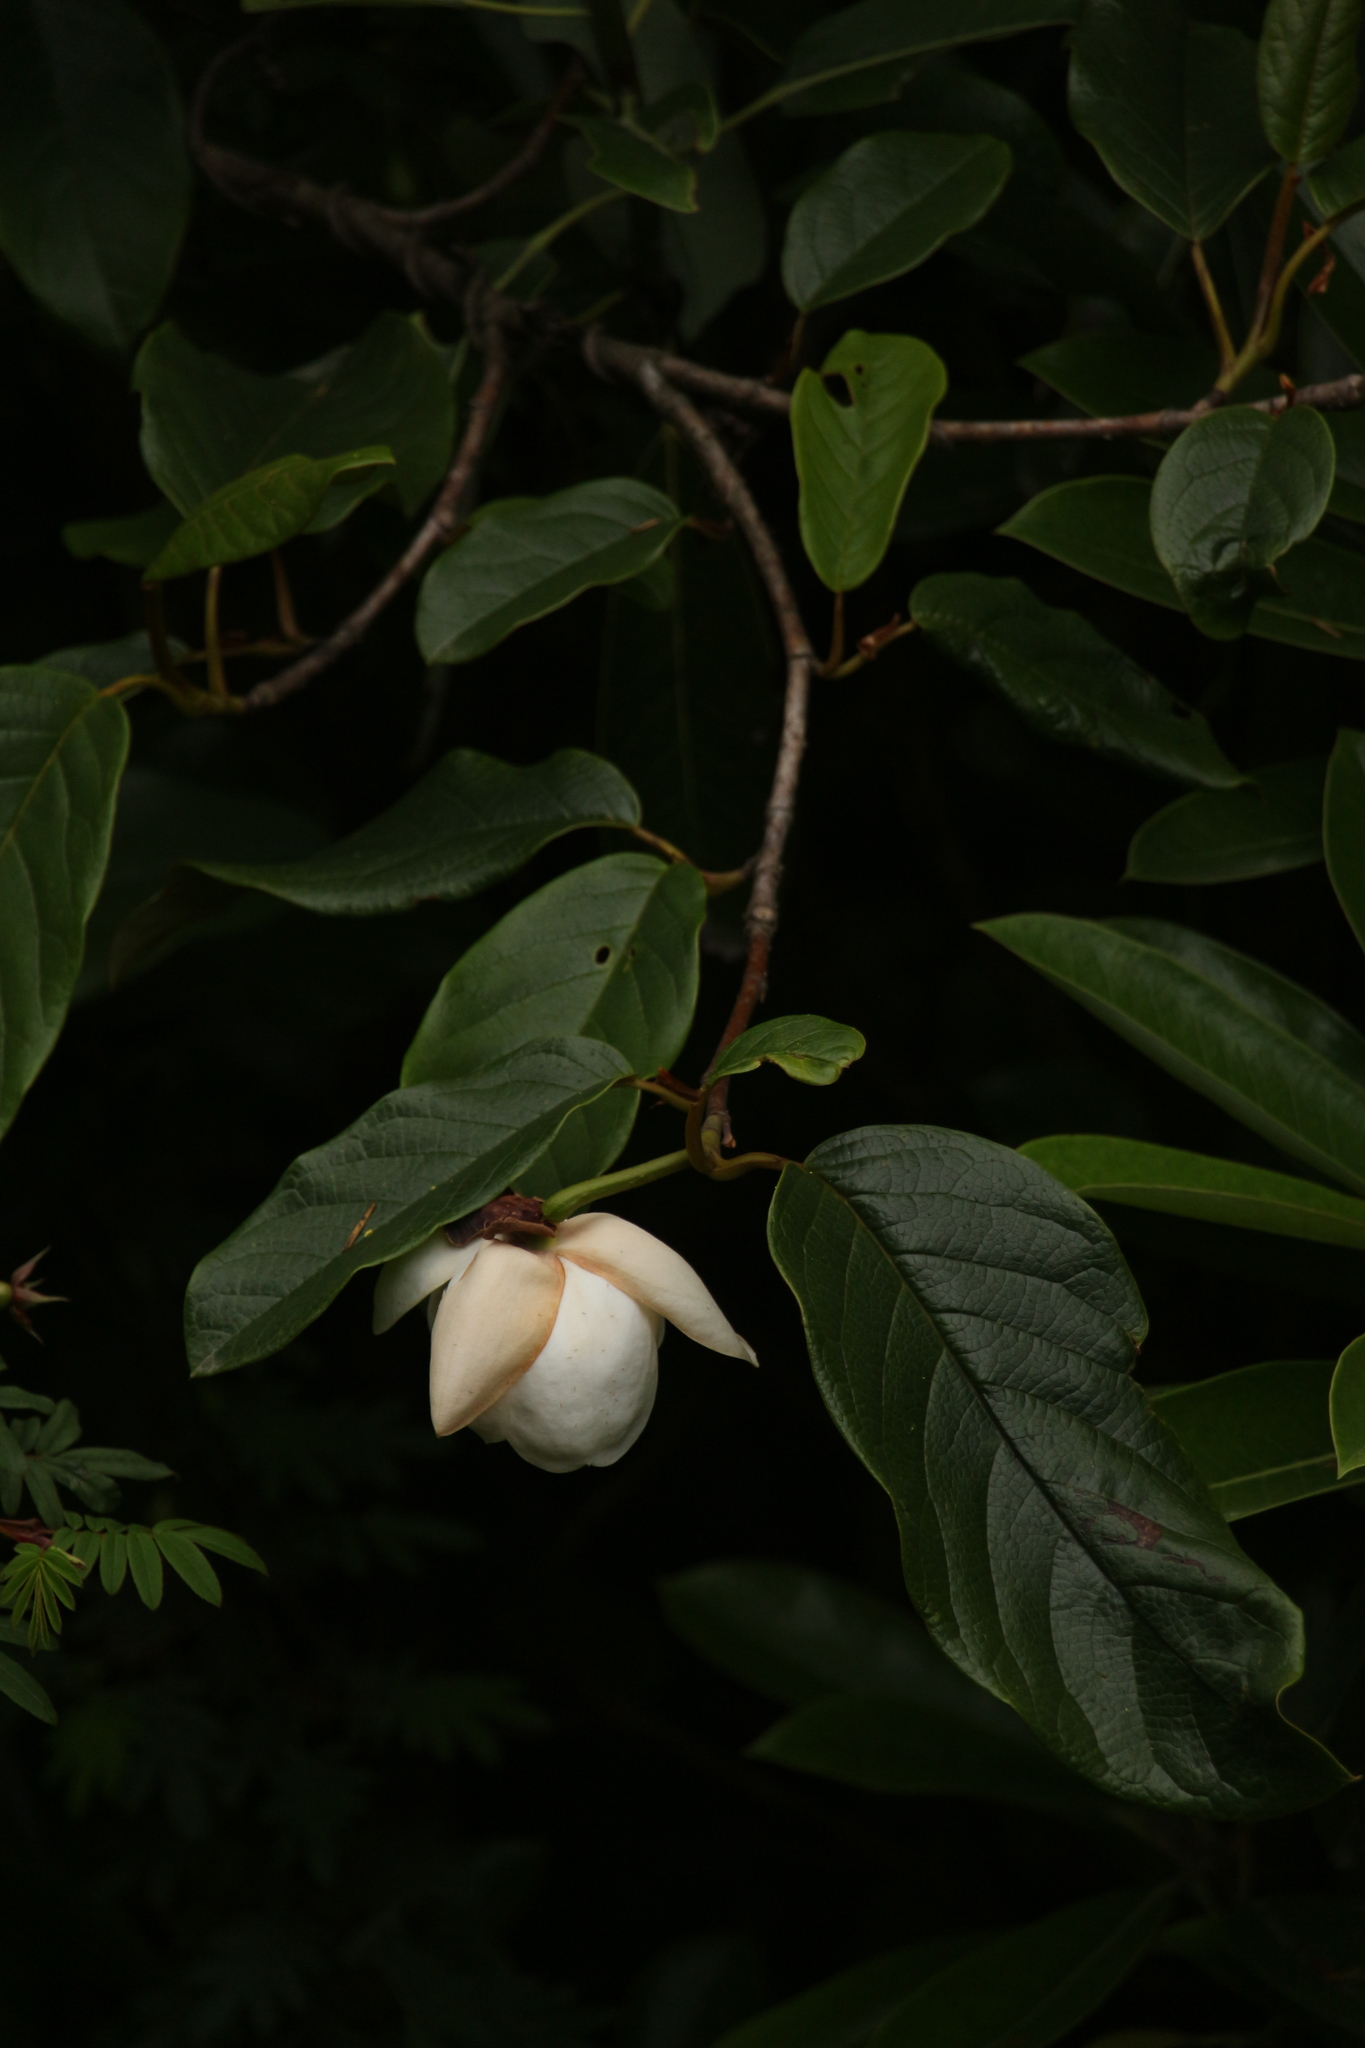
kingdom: Plantae
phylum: Tracheophyta
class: Magnoliopsida
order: Magnoliales
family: Magnoliaceae
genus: Magnolia
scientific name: Magnolia globosa
